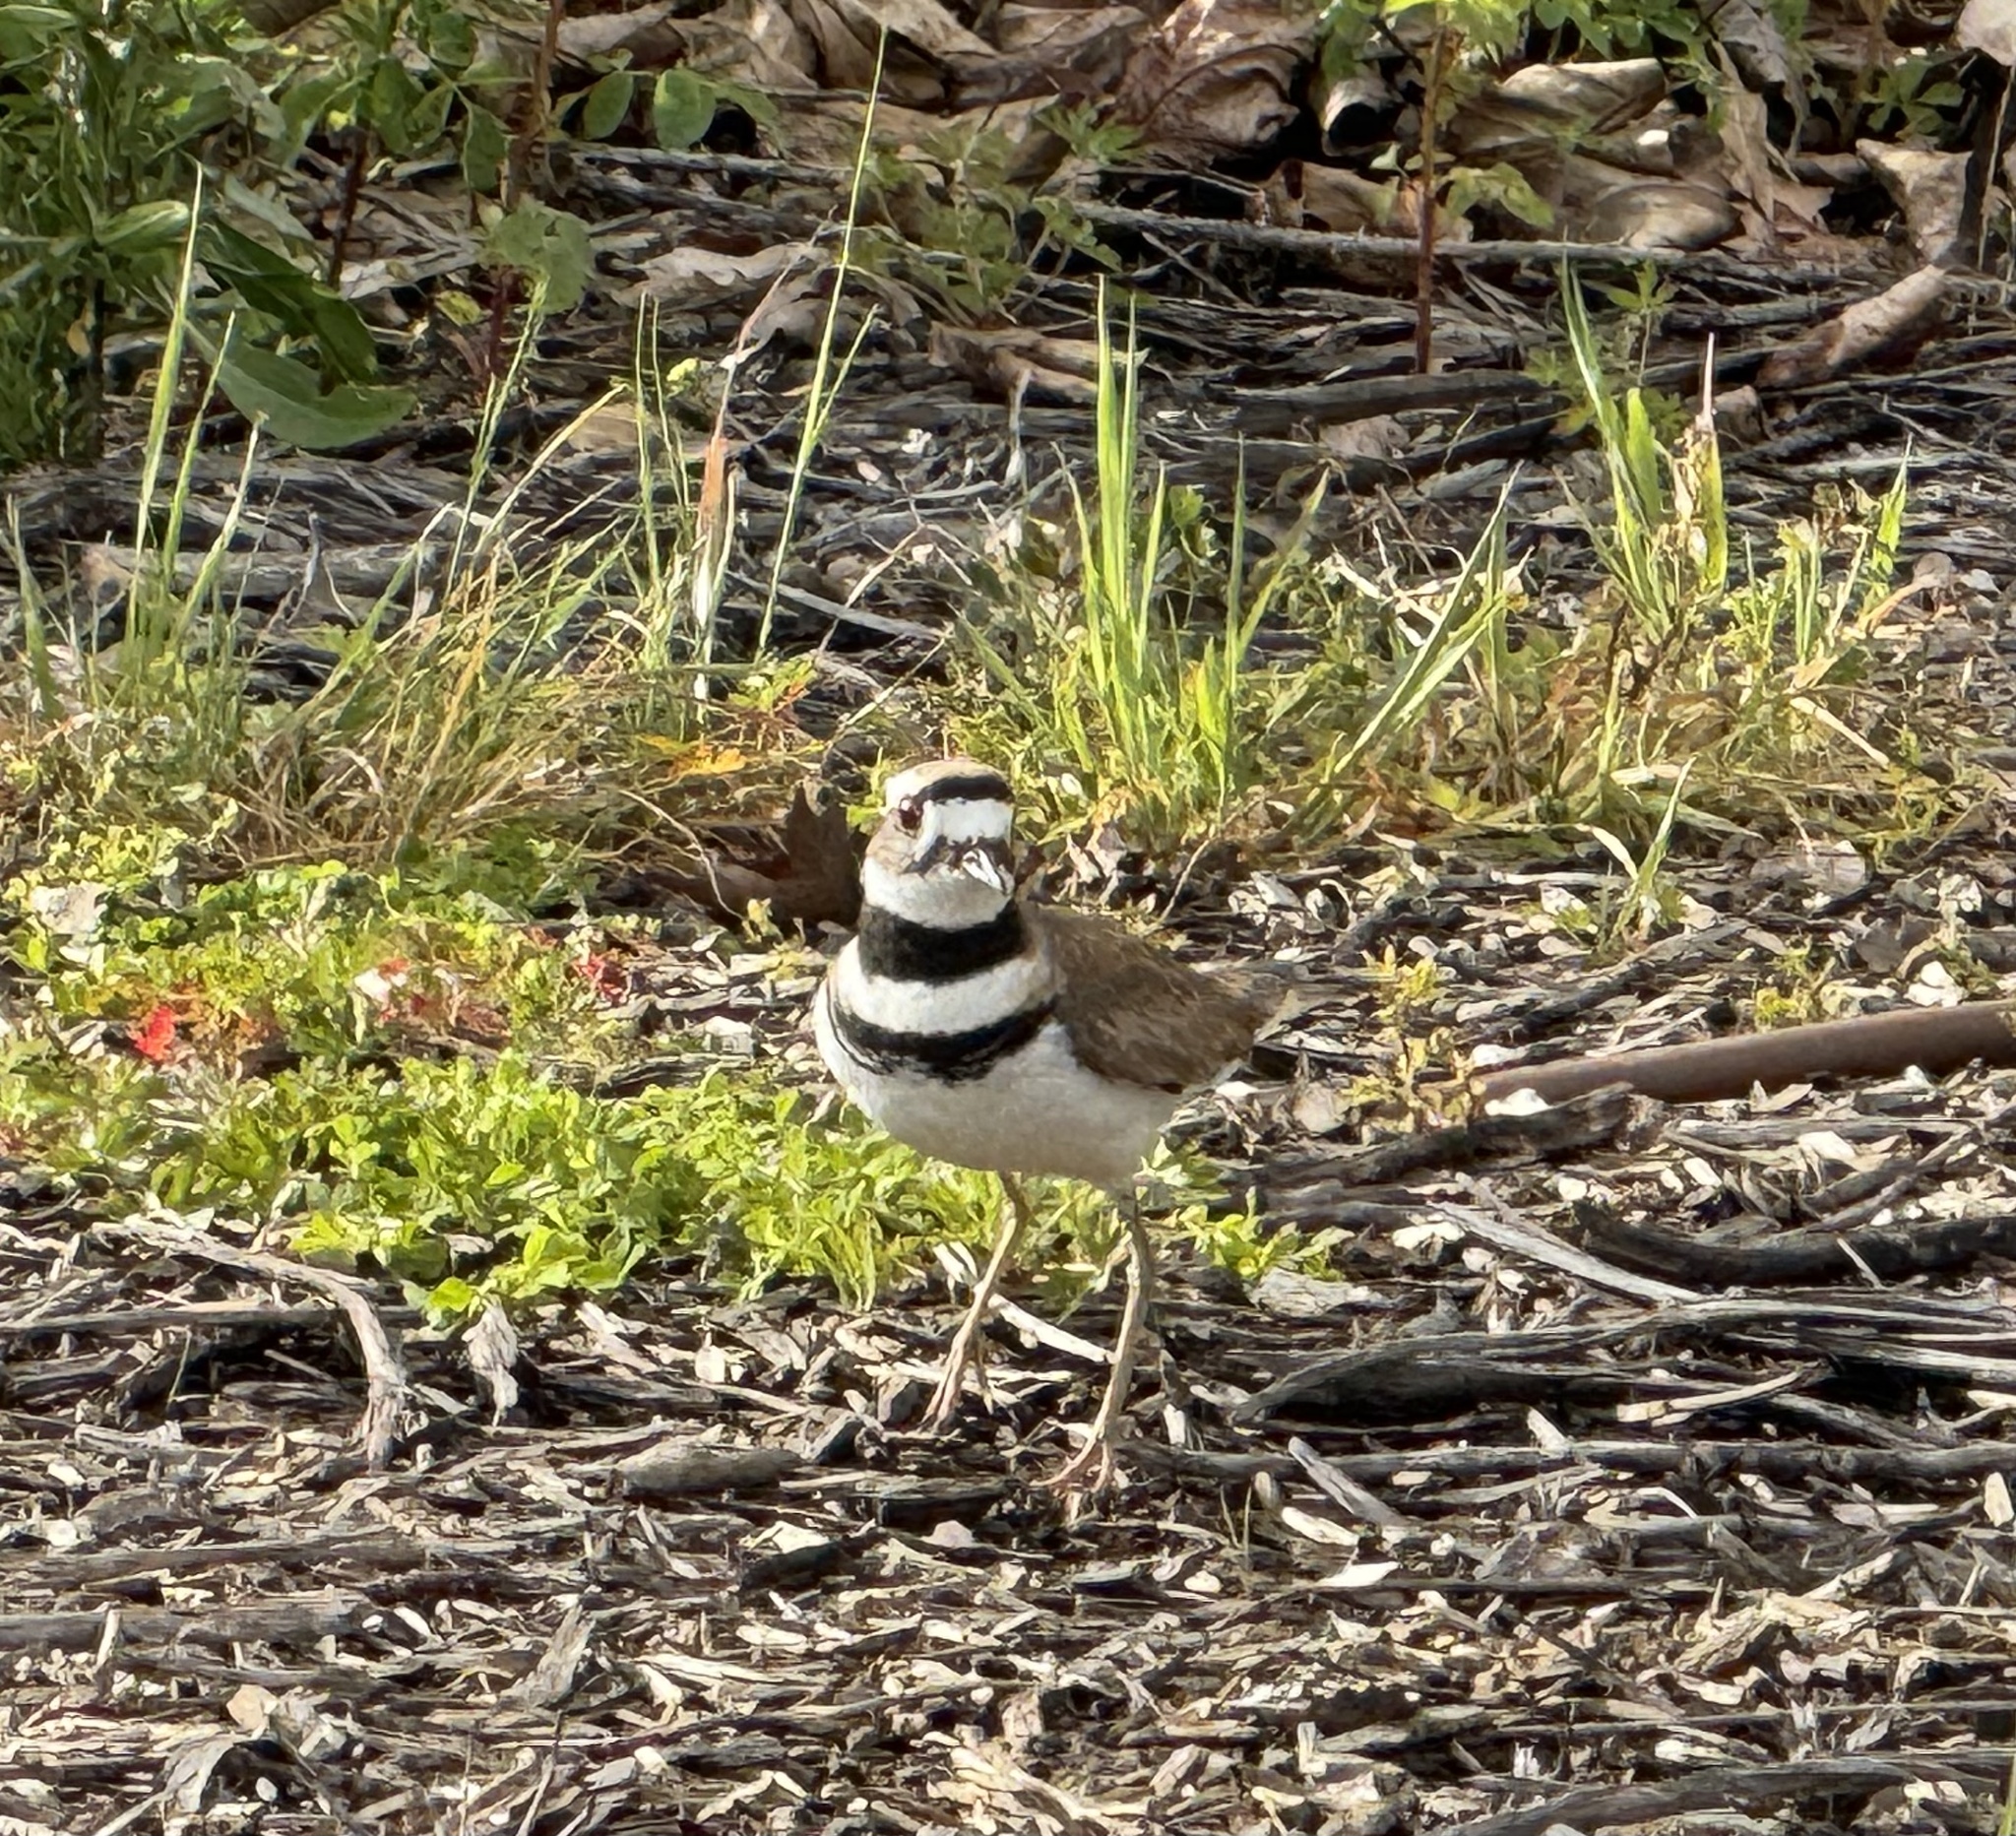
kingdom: Animalia
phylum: Chordata
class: Aves
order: Charadriiformes
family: Charadriidae
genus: Charadrius
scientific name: Charadrius vociferus
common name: Killdeer
